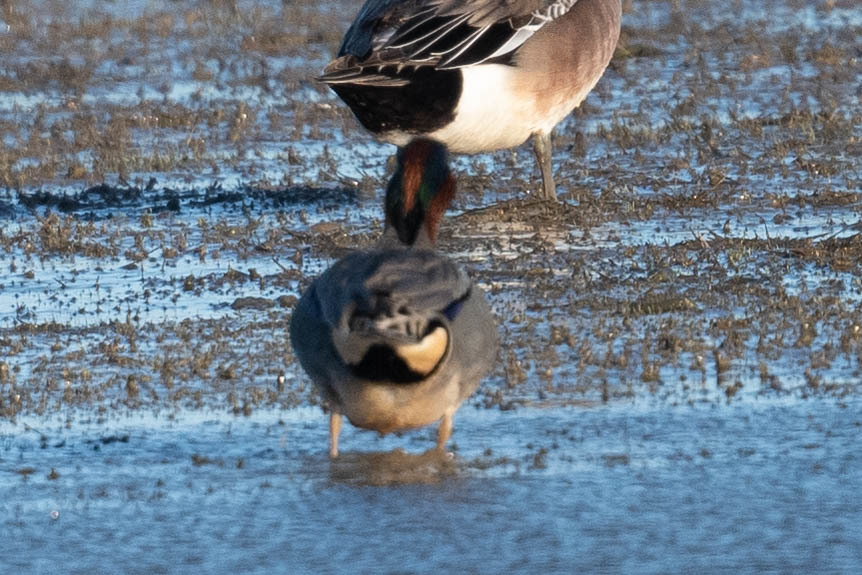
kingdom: Animalia
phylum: Chordata
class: Aves
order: Anseriformes
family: Anatidae
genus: Anas
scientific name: Anas crecca
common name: Eurasian teal
